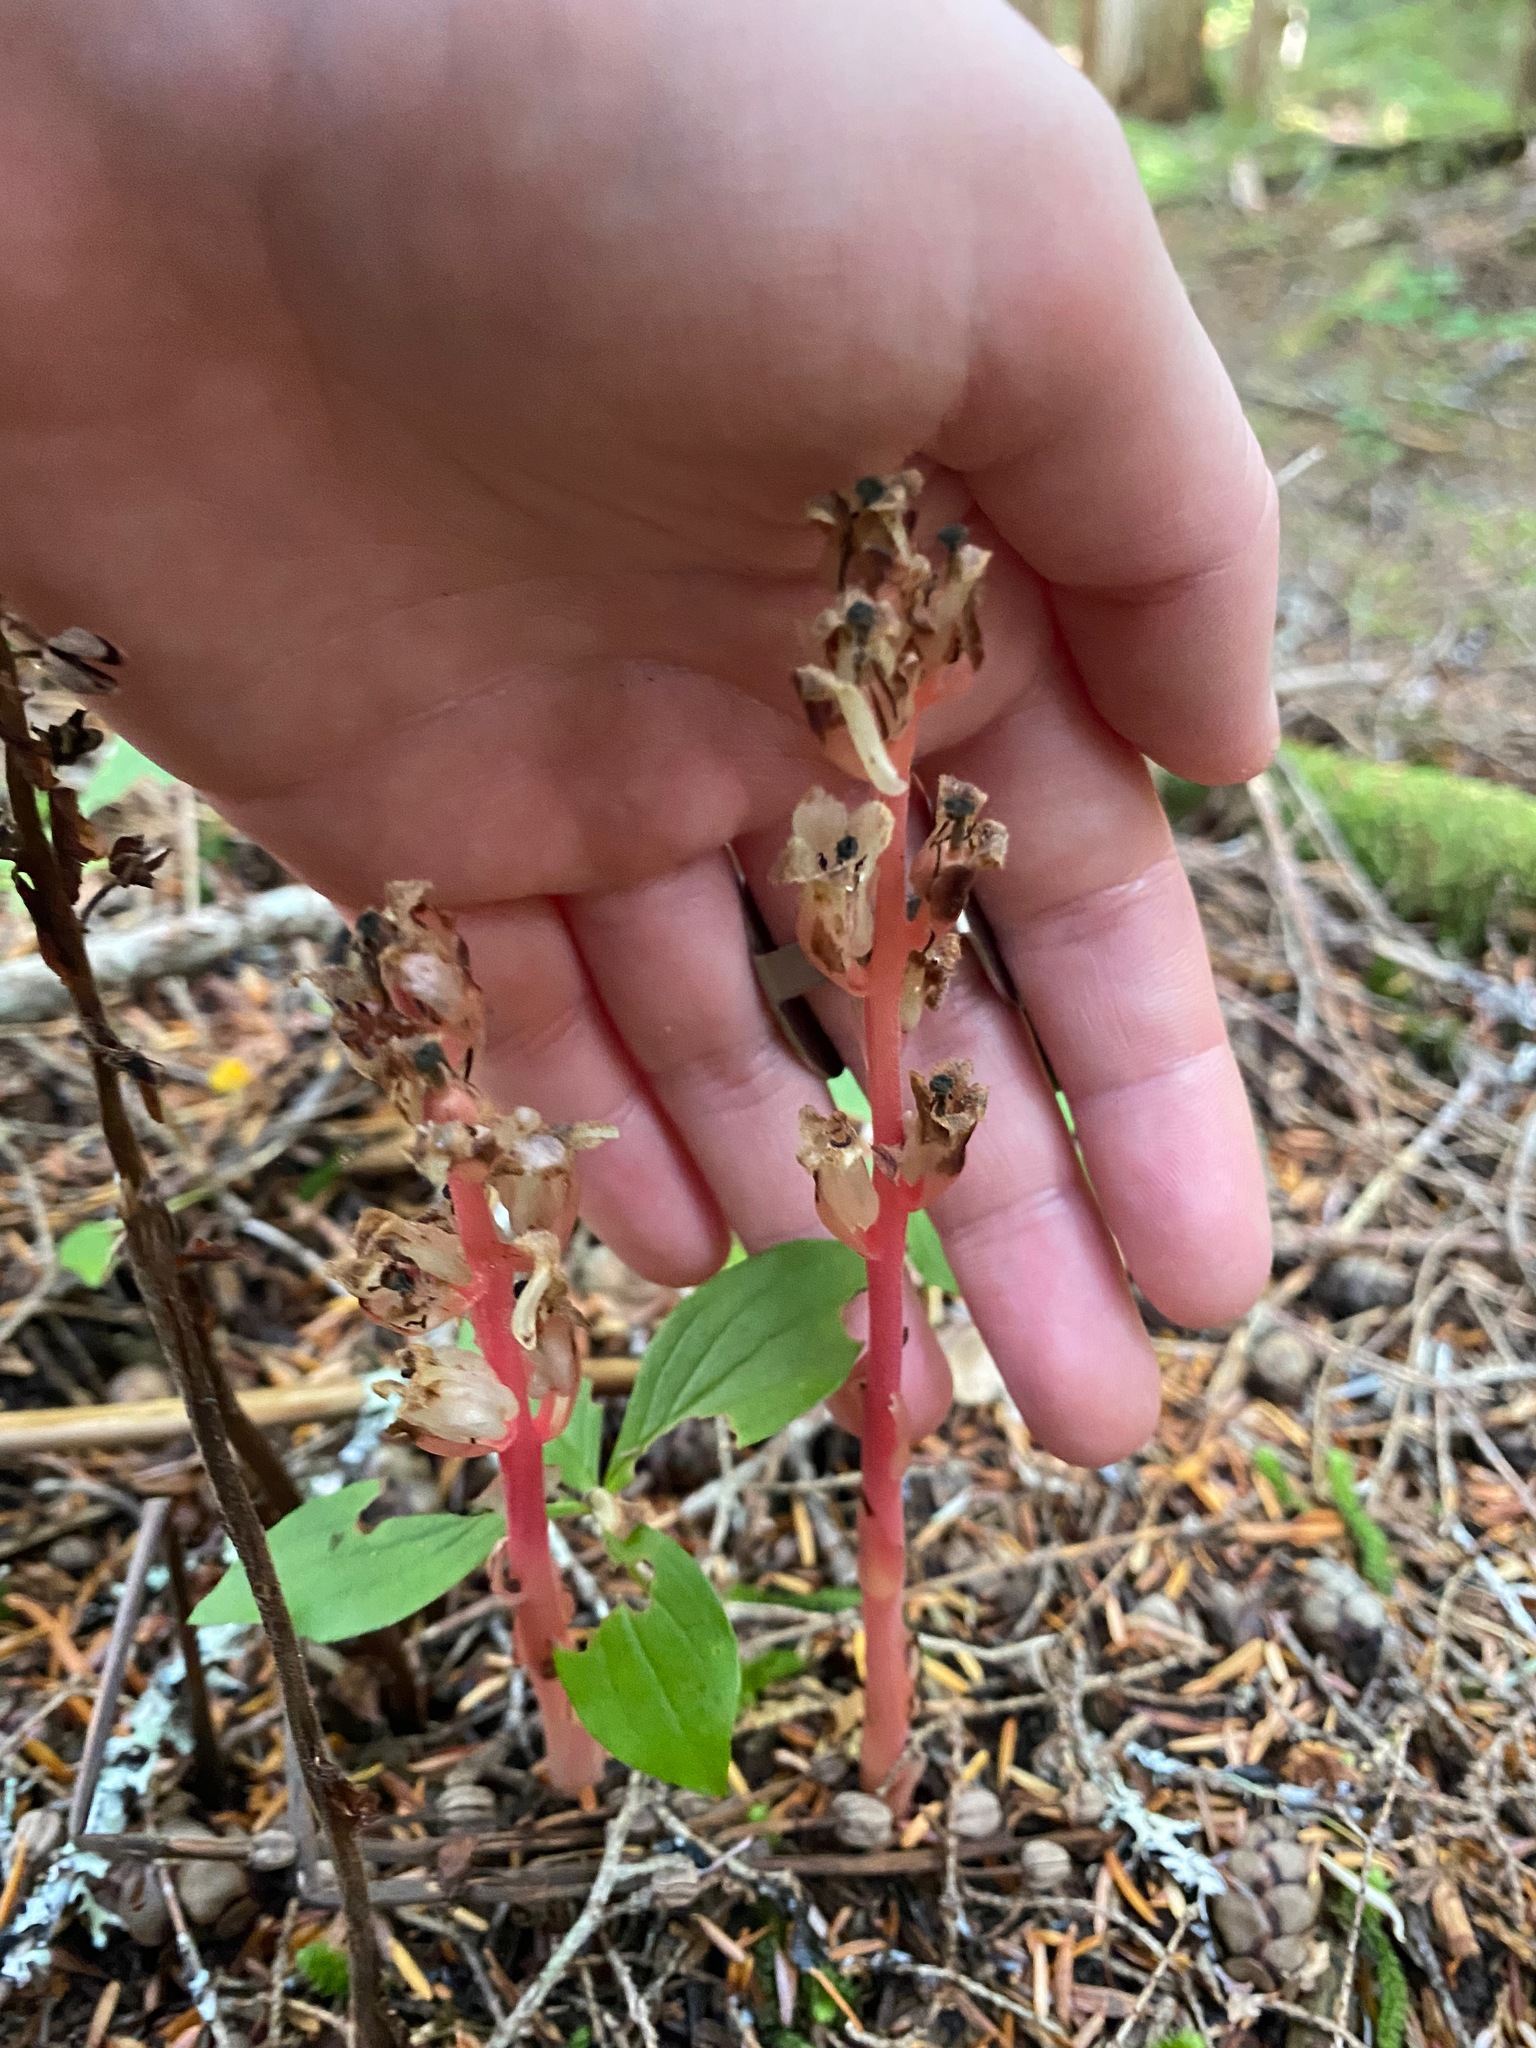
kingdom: Plantae
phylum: Tracheophyta
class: Magnoliopsida
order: Ericales
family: Ericaceae
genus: Hypopitys
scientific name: Hypopitys monotropa
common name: Yellow bird's-nest
